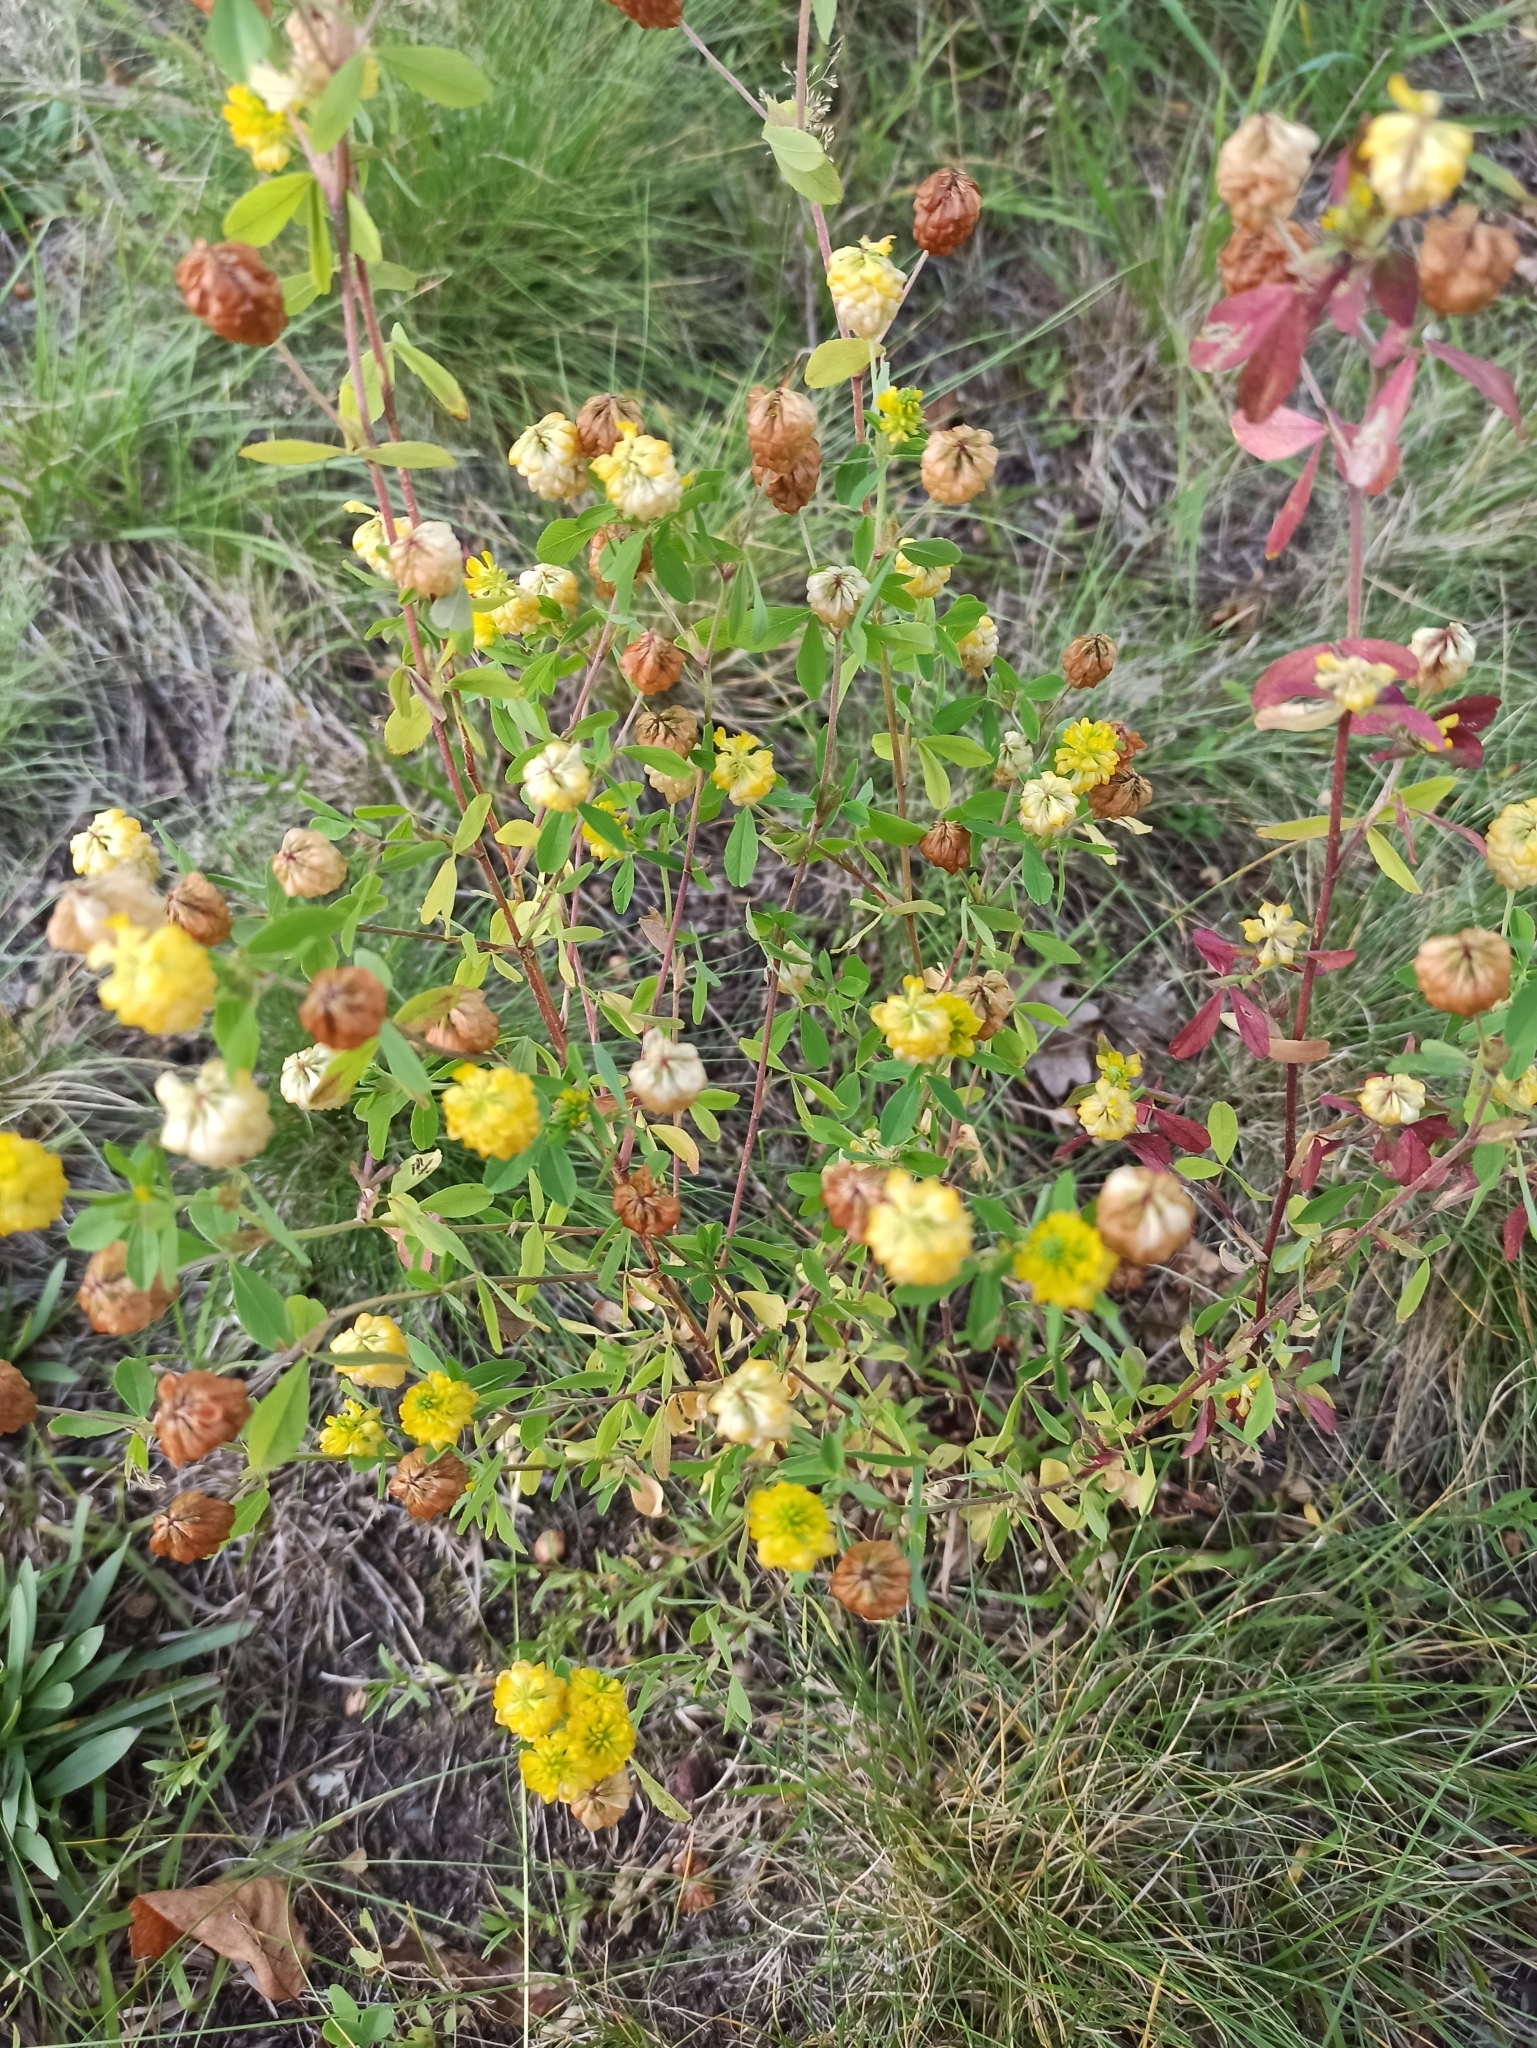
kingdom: Plantae
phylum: Tracheophyta
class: Magnoliopsida
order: Fabales
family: Fabaceae
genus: Trifolium
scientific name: Trifolium campestre
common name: Field clover
